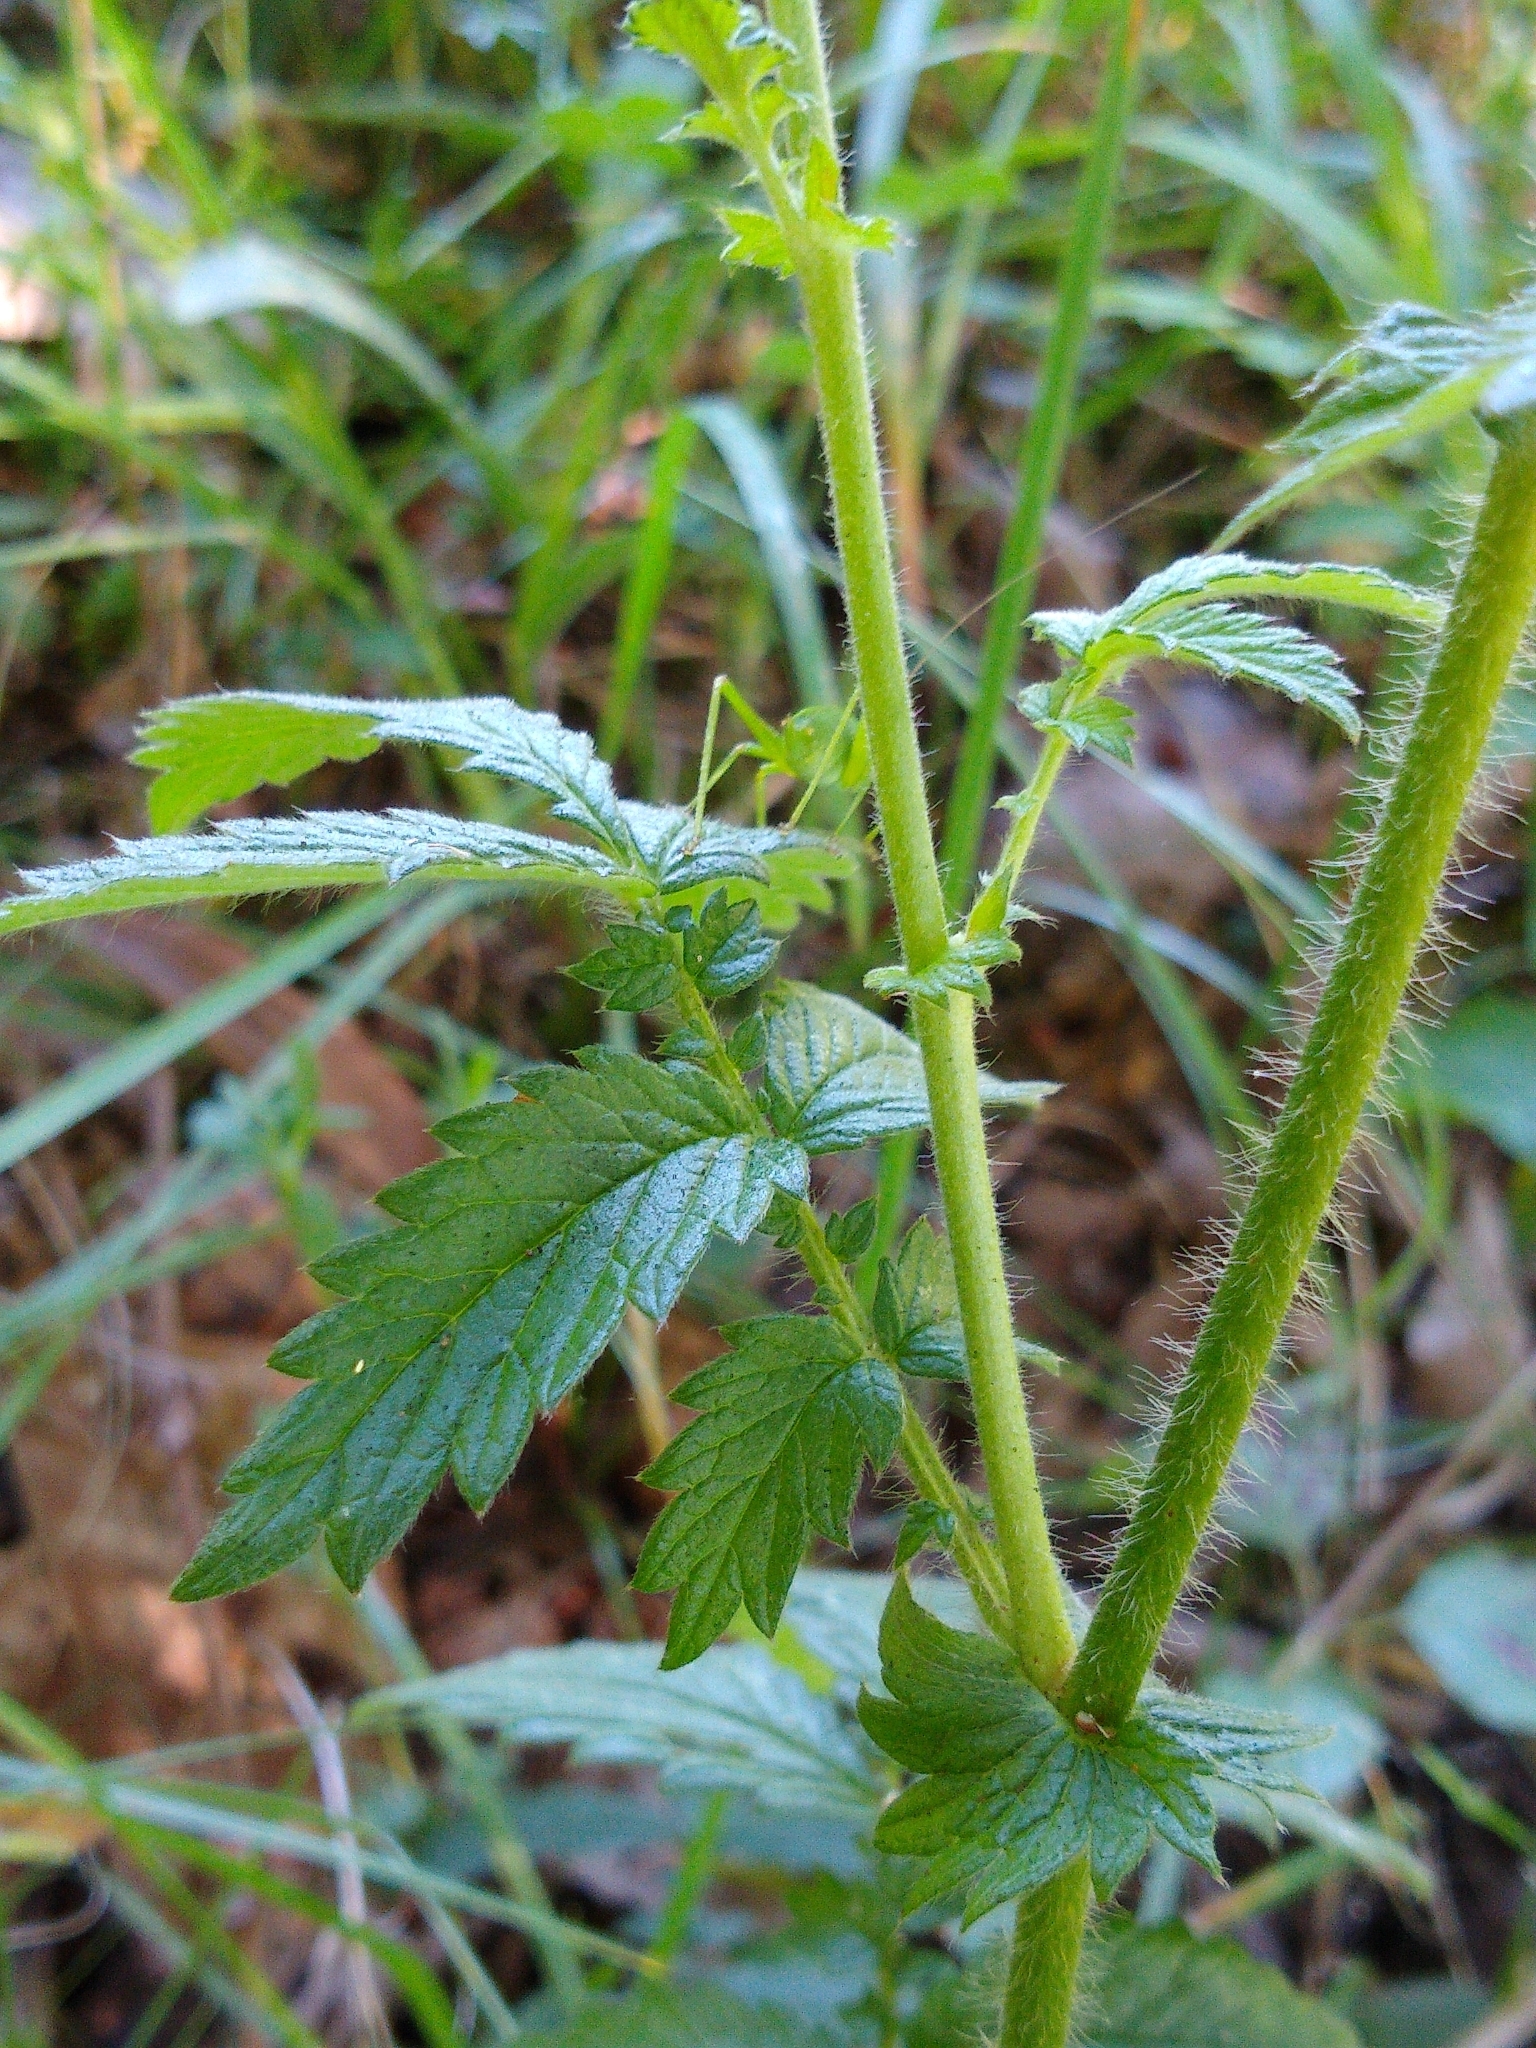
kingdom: Plantae
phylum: Tracheophyta
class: Magnoliopsida
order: Rosales
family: Rosaceae
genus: Agrimonia
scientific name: Agrimonia eupatoria
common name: Agrimony
